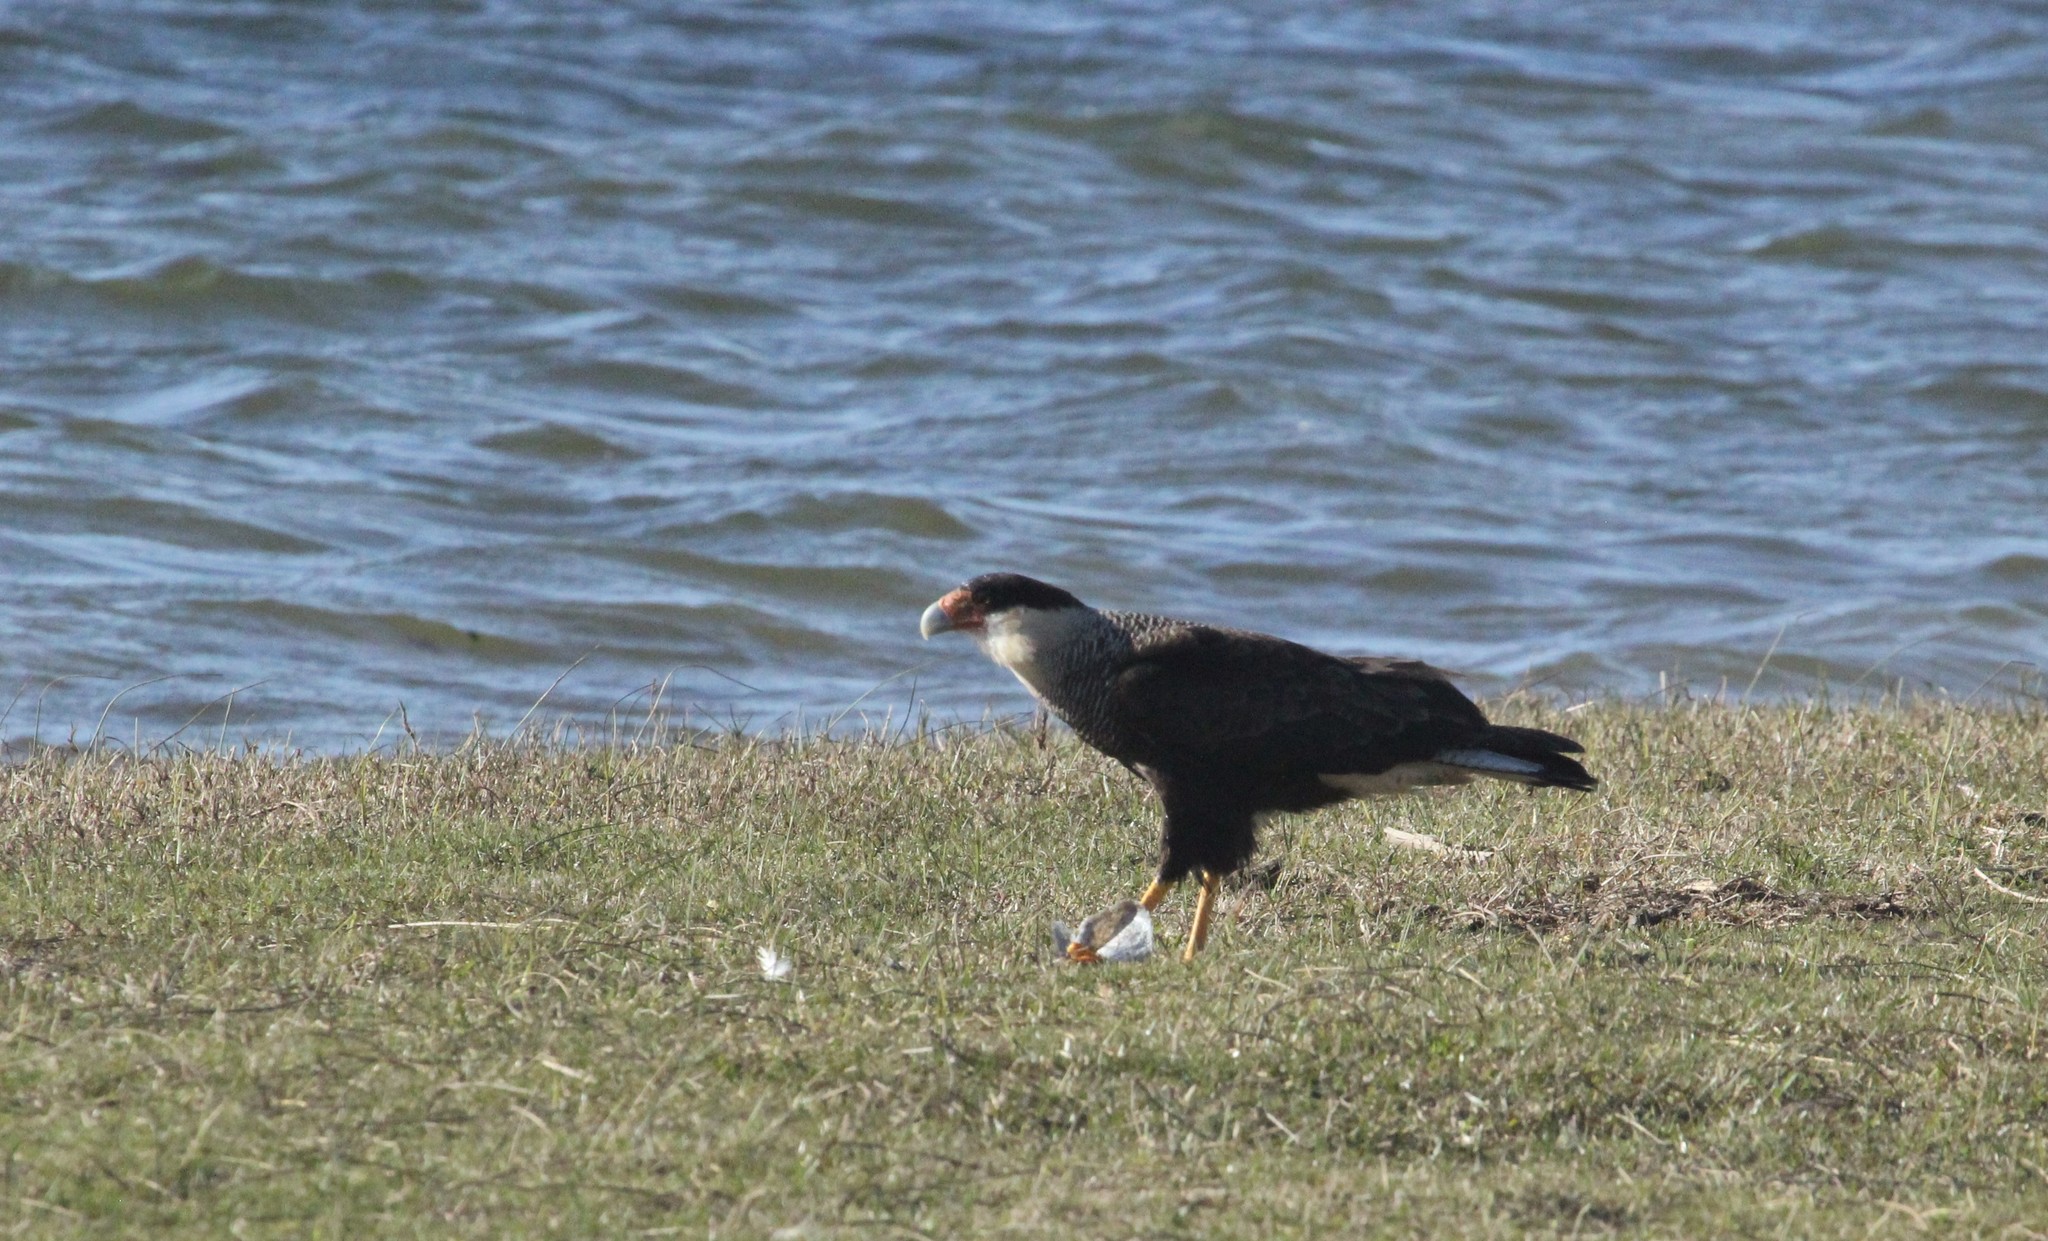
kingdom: Animalia
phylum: Chordata
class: Aves
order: Falconiformes
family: Falconidae
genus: Caracara
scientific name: Caracara plancus
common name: Southern caracara
